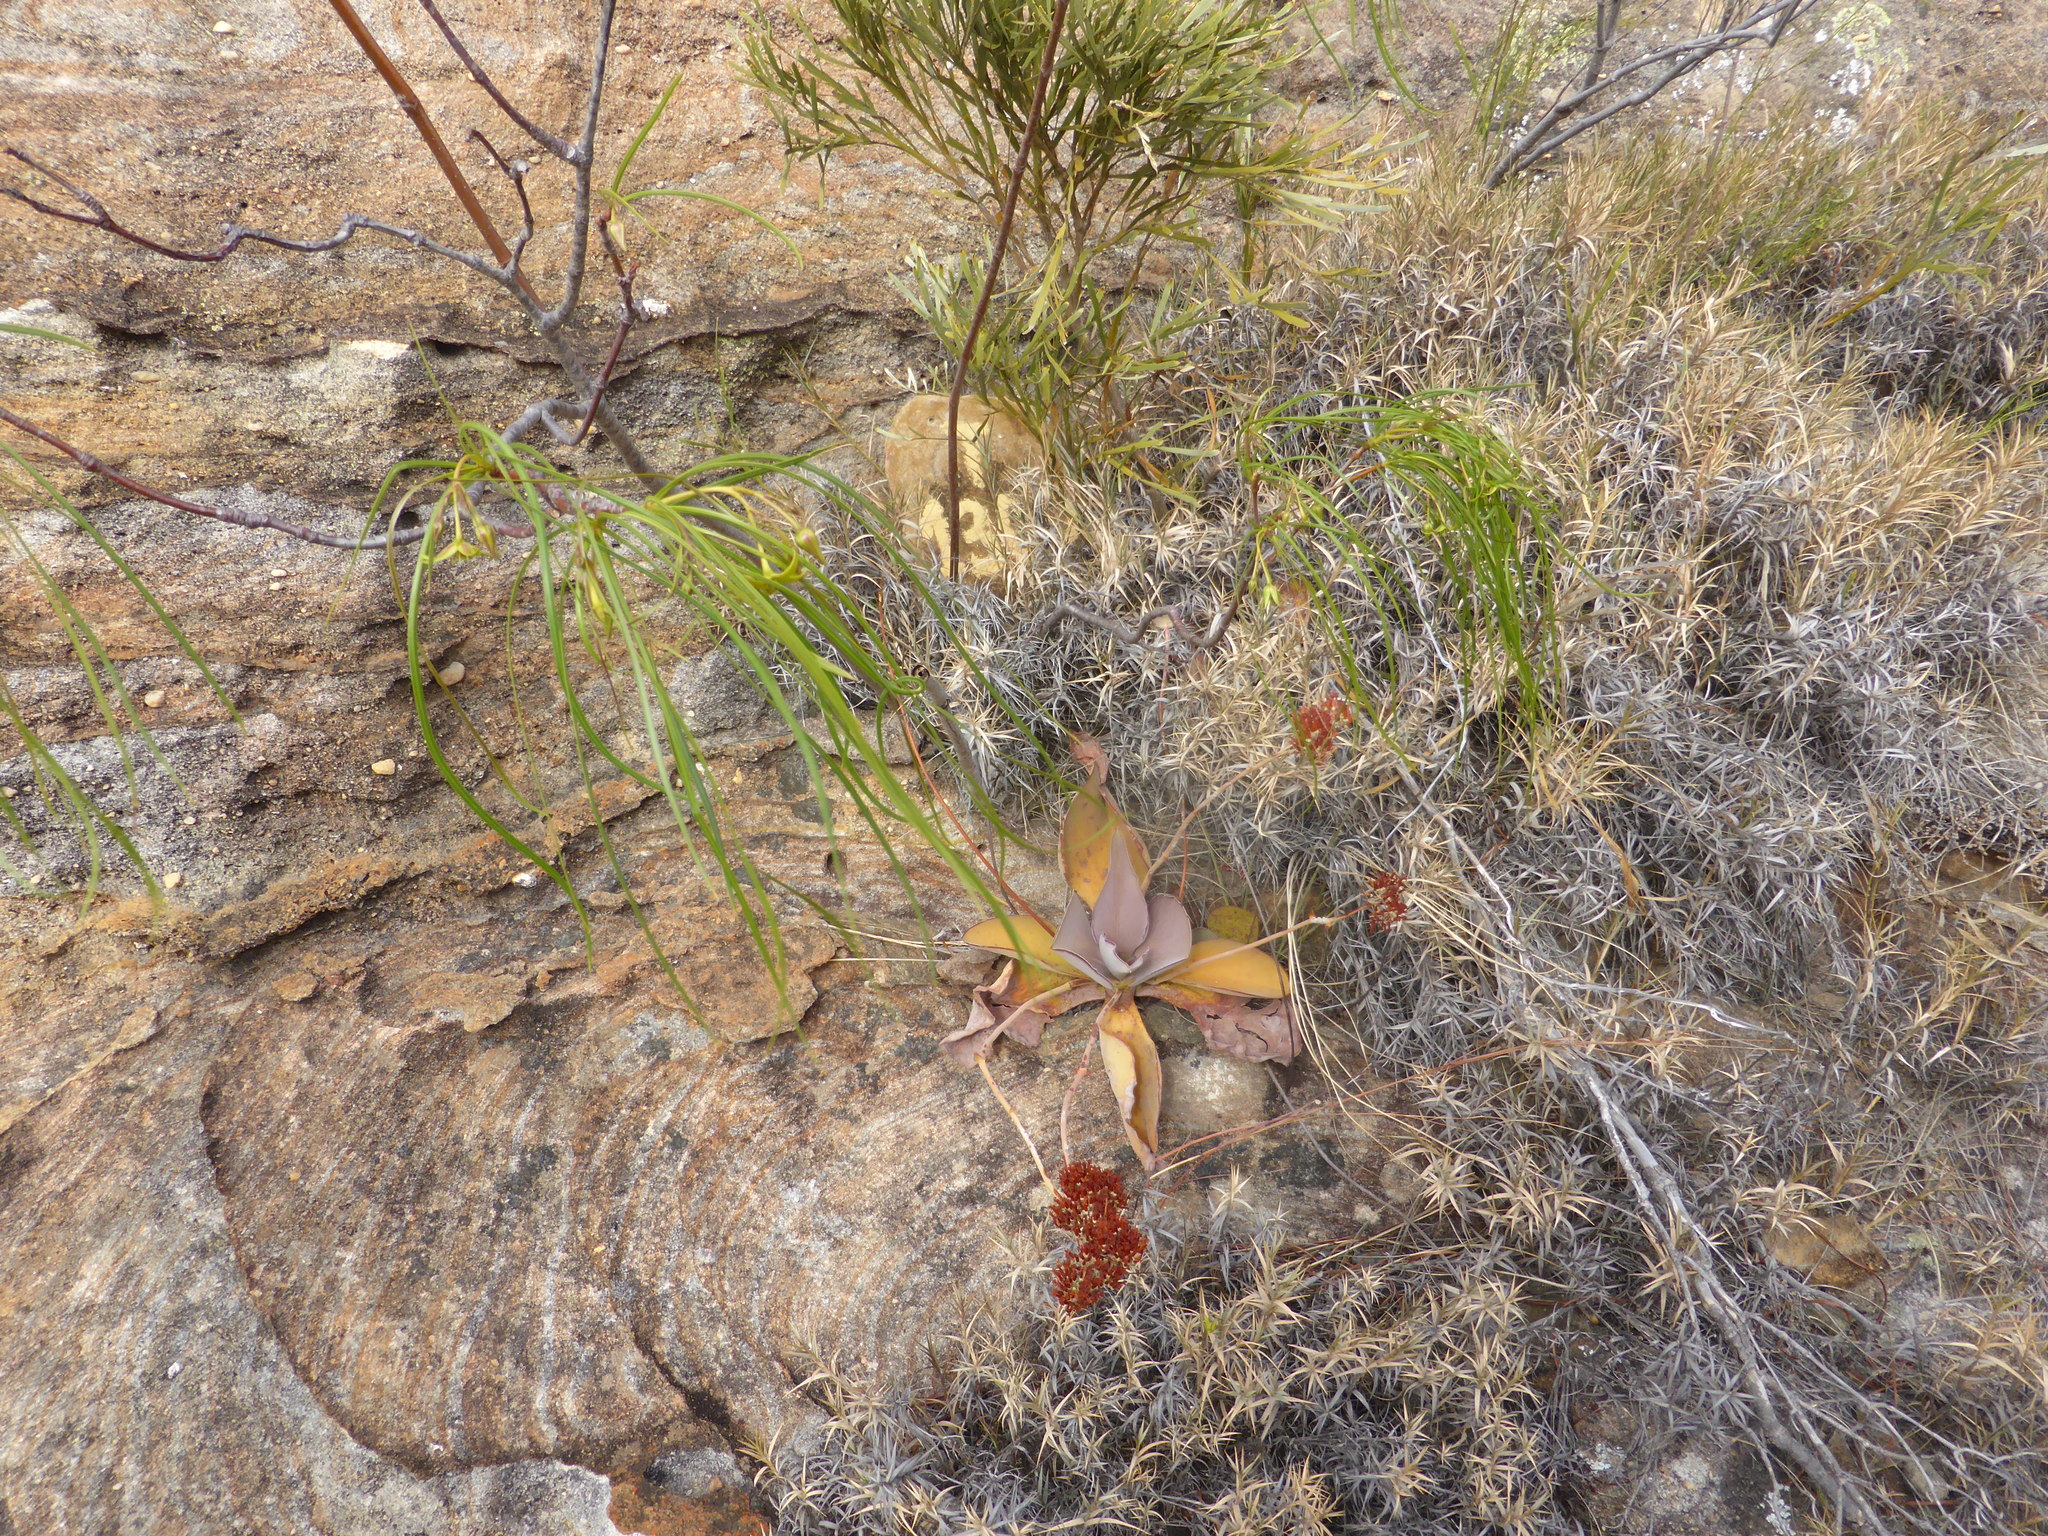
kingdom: Plantae
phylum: Tracheophyta
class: Magnoliopsida
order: Saxifragales
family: Crassulaceae
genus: Kalanchoe
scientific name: Kalanchoe synsepala
